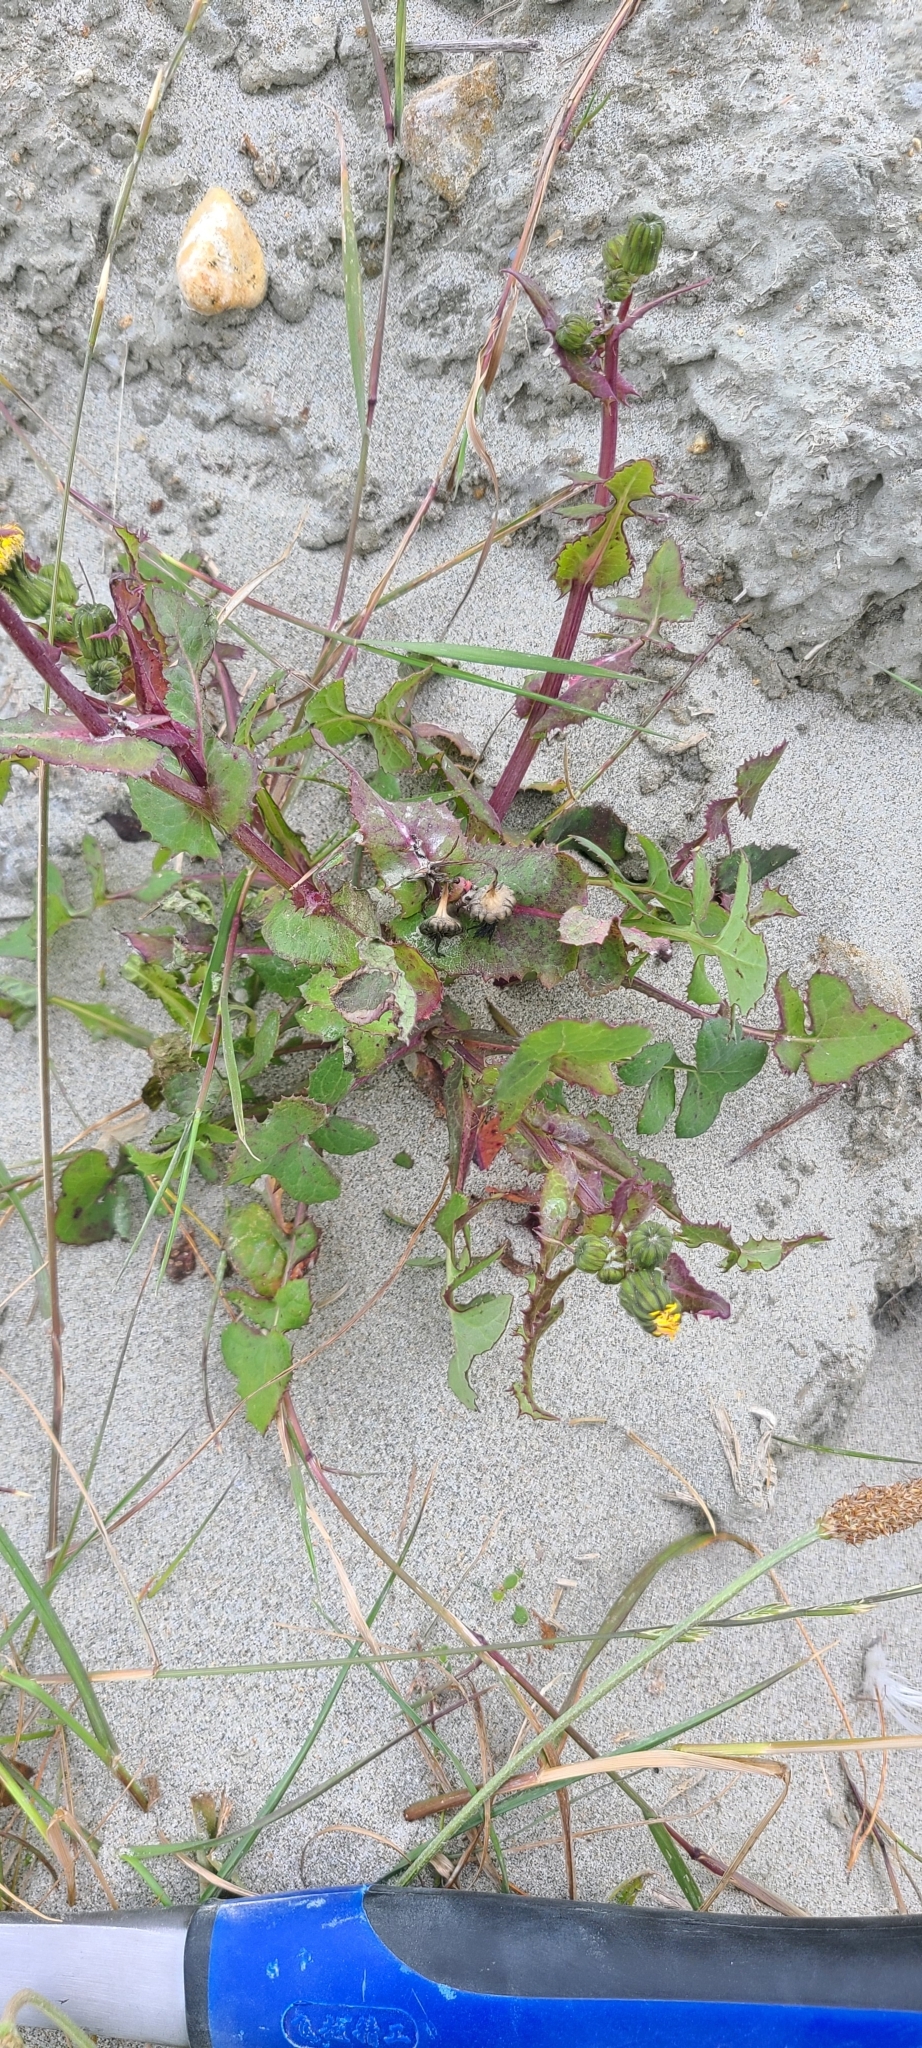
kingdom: Plantae
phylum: Tracheophyta
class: Magnoliopsida
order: Asterales
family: Asteraceae
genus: Sonchus
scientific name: Sonchus oleraceus
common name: Common sowthistle
